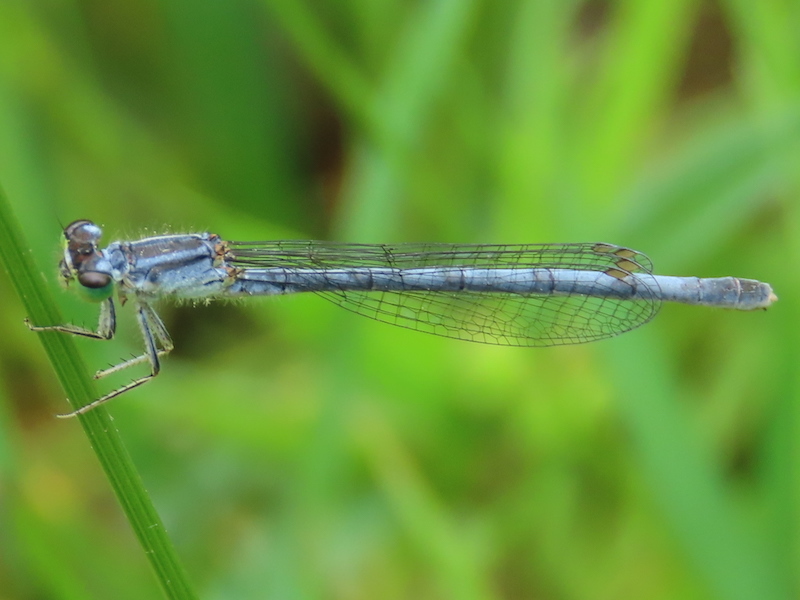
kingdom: Animalia
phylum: Arthropoda
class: Insecta
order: Odonata
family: Coenagrionidae
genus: Ischnura
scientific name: Ischnura verticalis
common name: Eastern forktail
